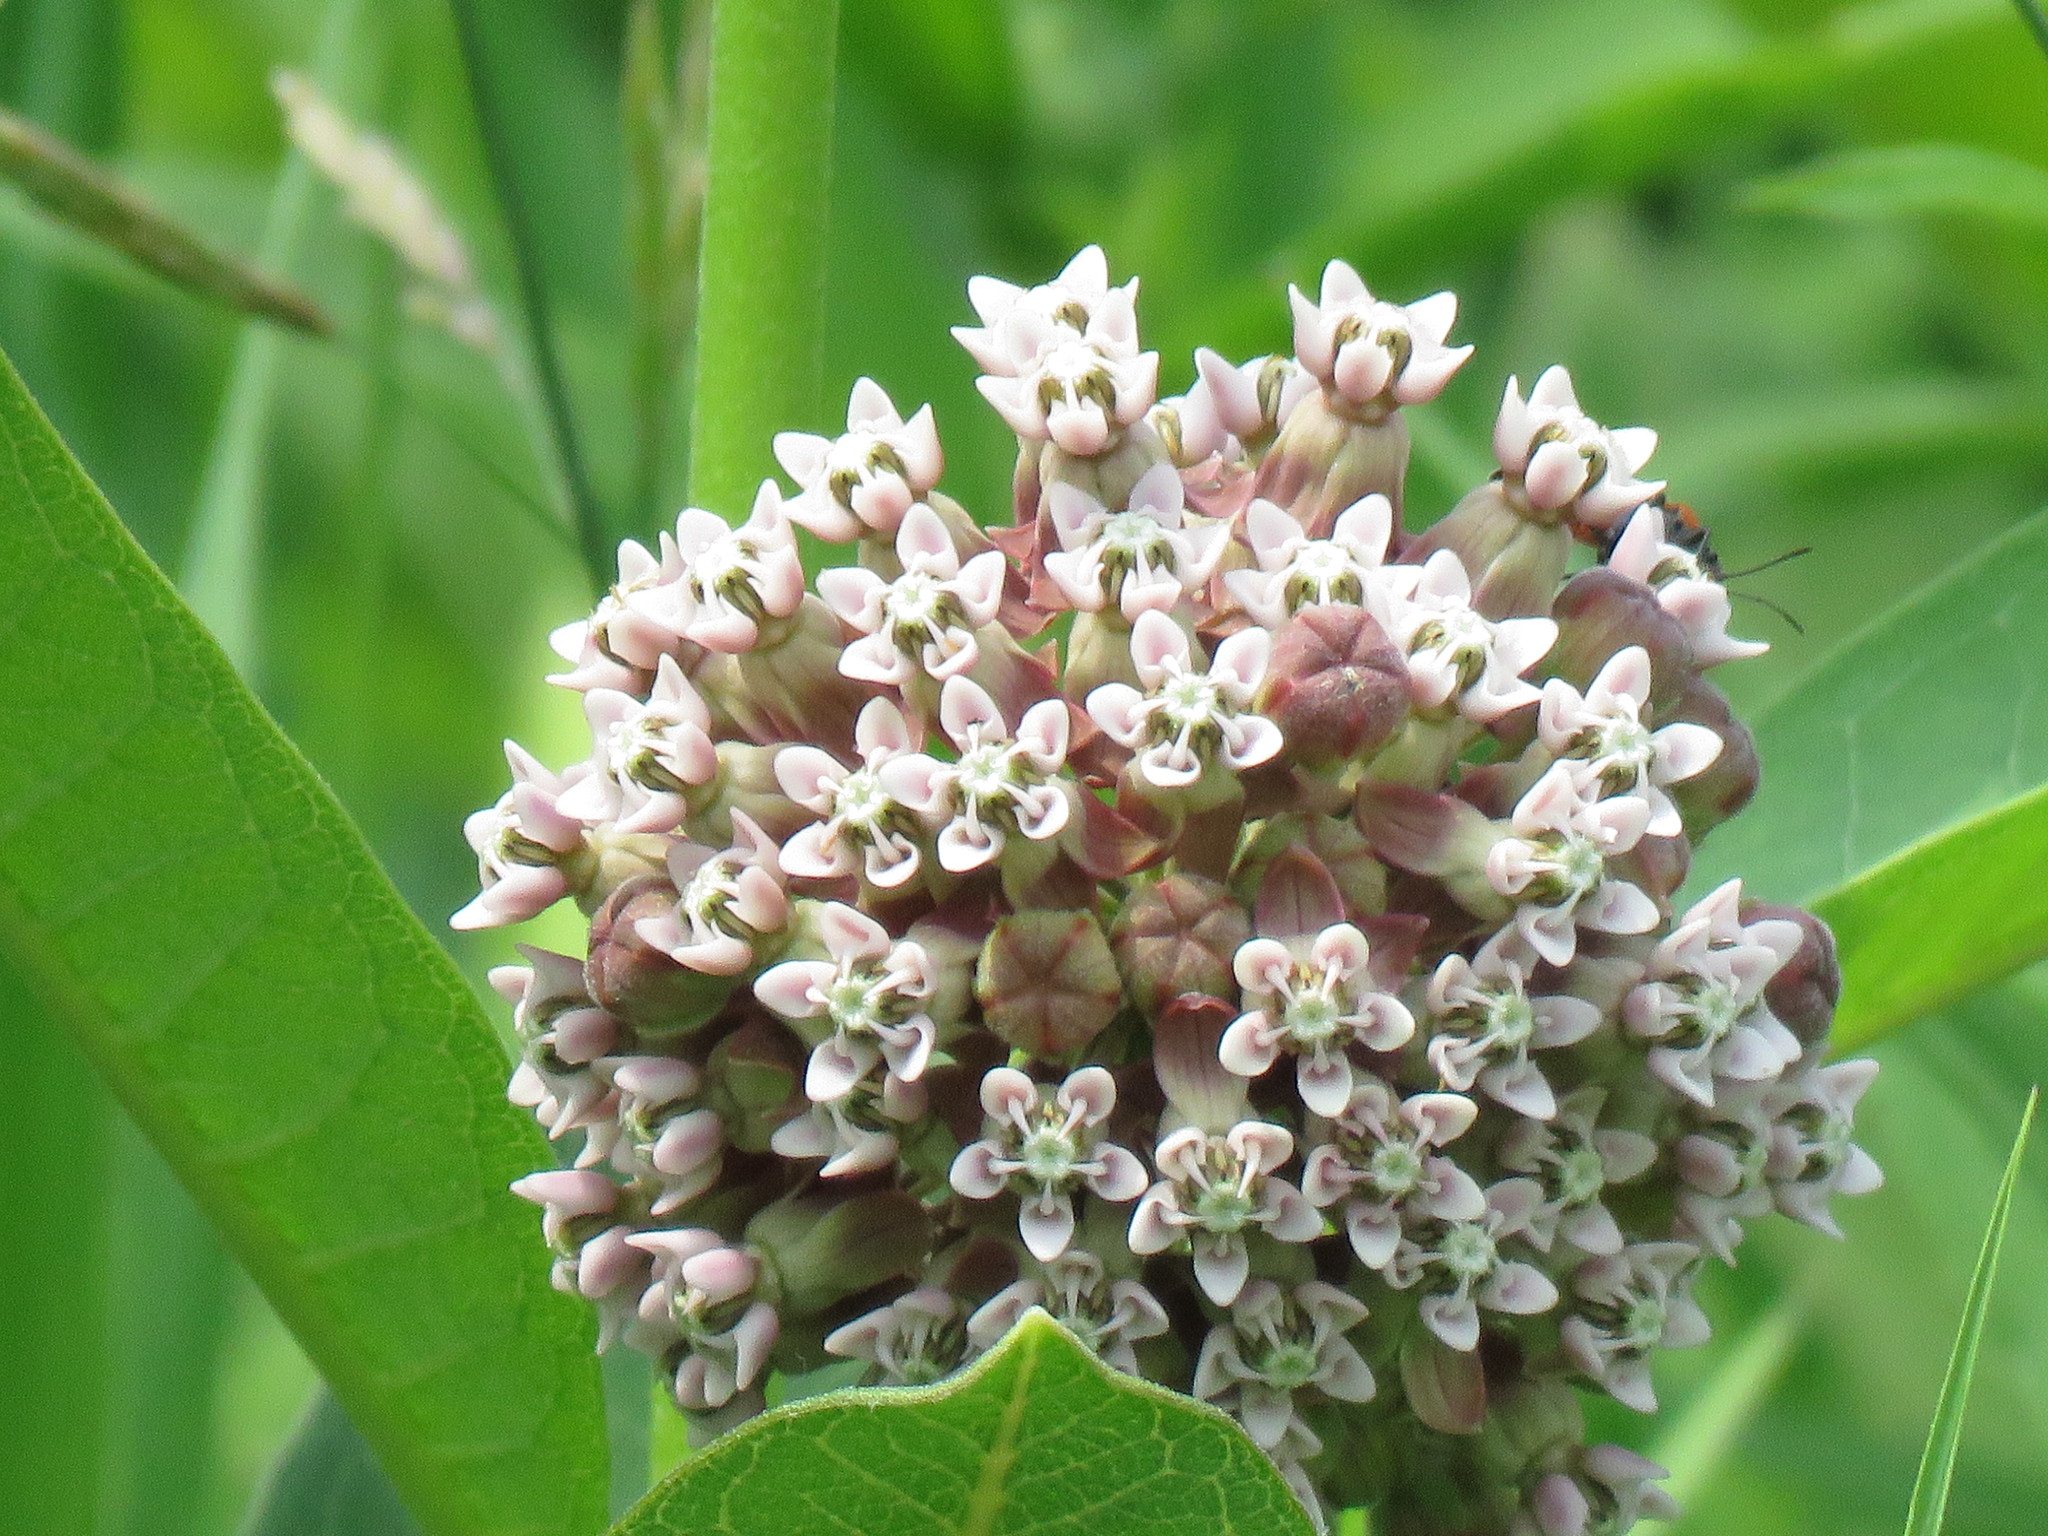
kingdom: Plantae
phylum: Tracheophyta
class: Magnoliopsida
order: Gentianales
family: Apocynaceae
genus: Asclepias
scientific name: Asclepias syriaca
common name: Common milkweed
